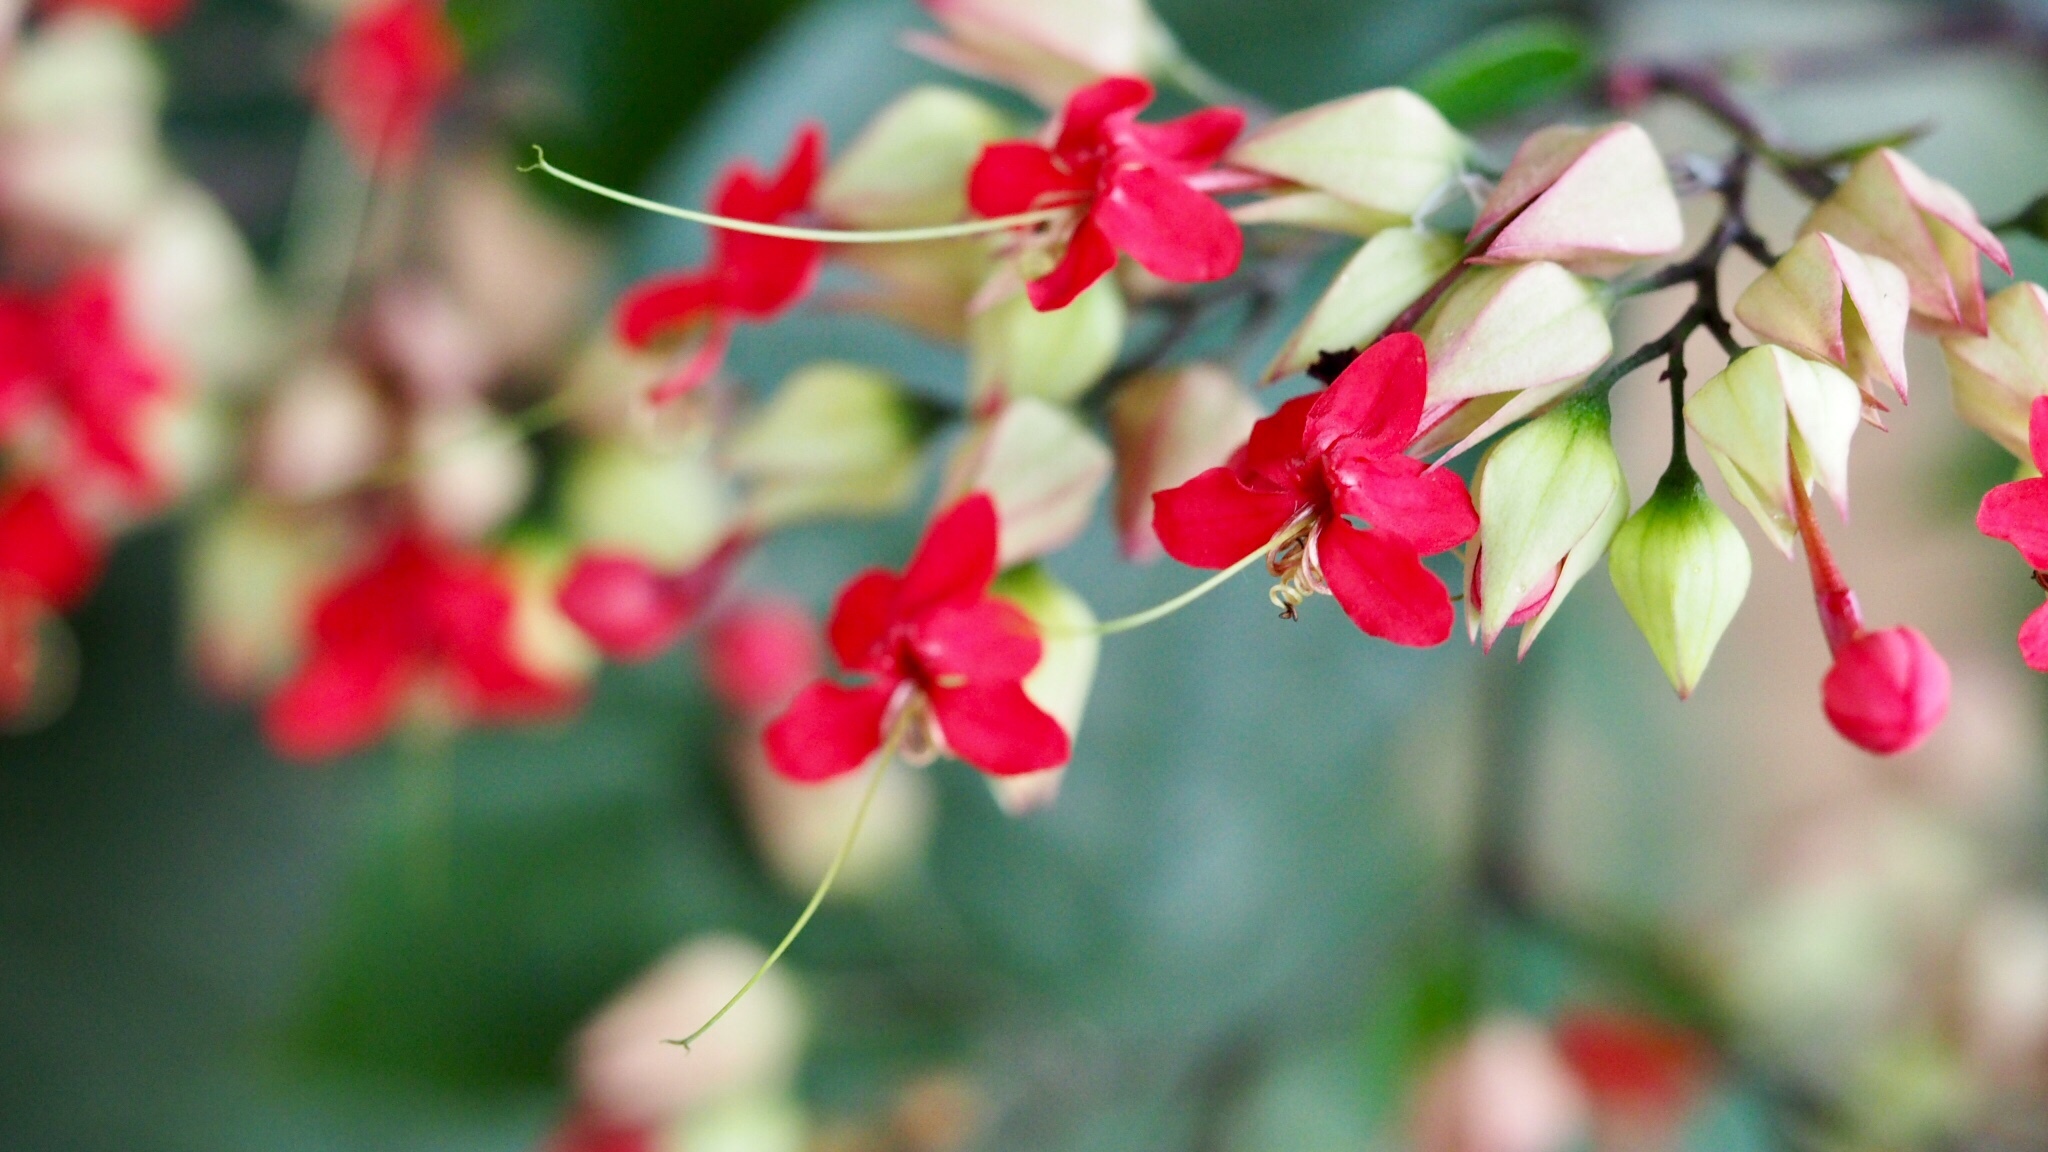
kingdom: Plantae
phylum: Tracheophyta
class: Magnoliopsida
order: Lamiales
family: Lamiaceae
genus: Clerodendrum
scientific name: Clerodendrum thomsoniae
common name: Bagflower
